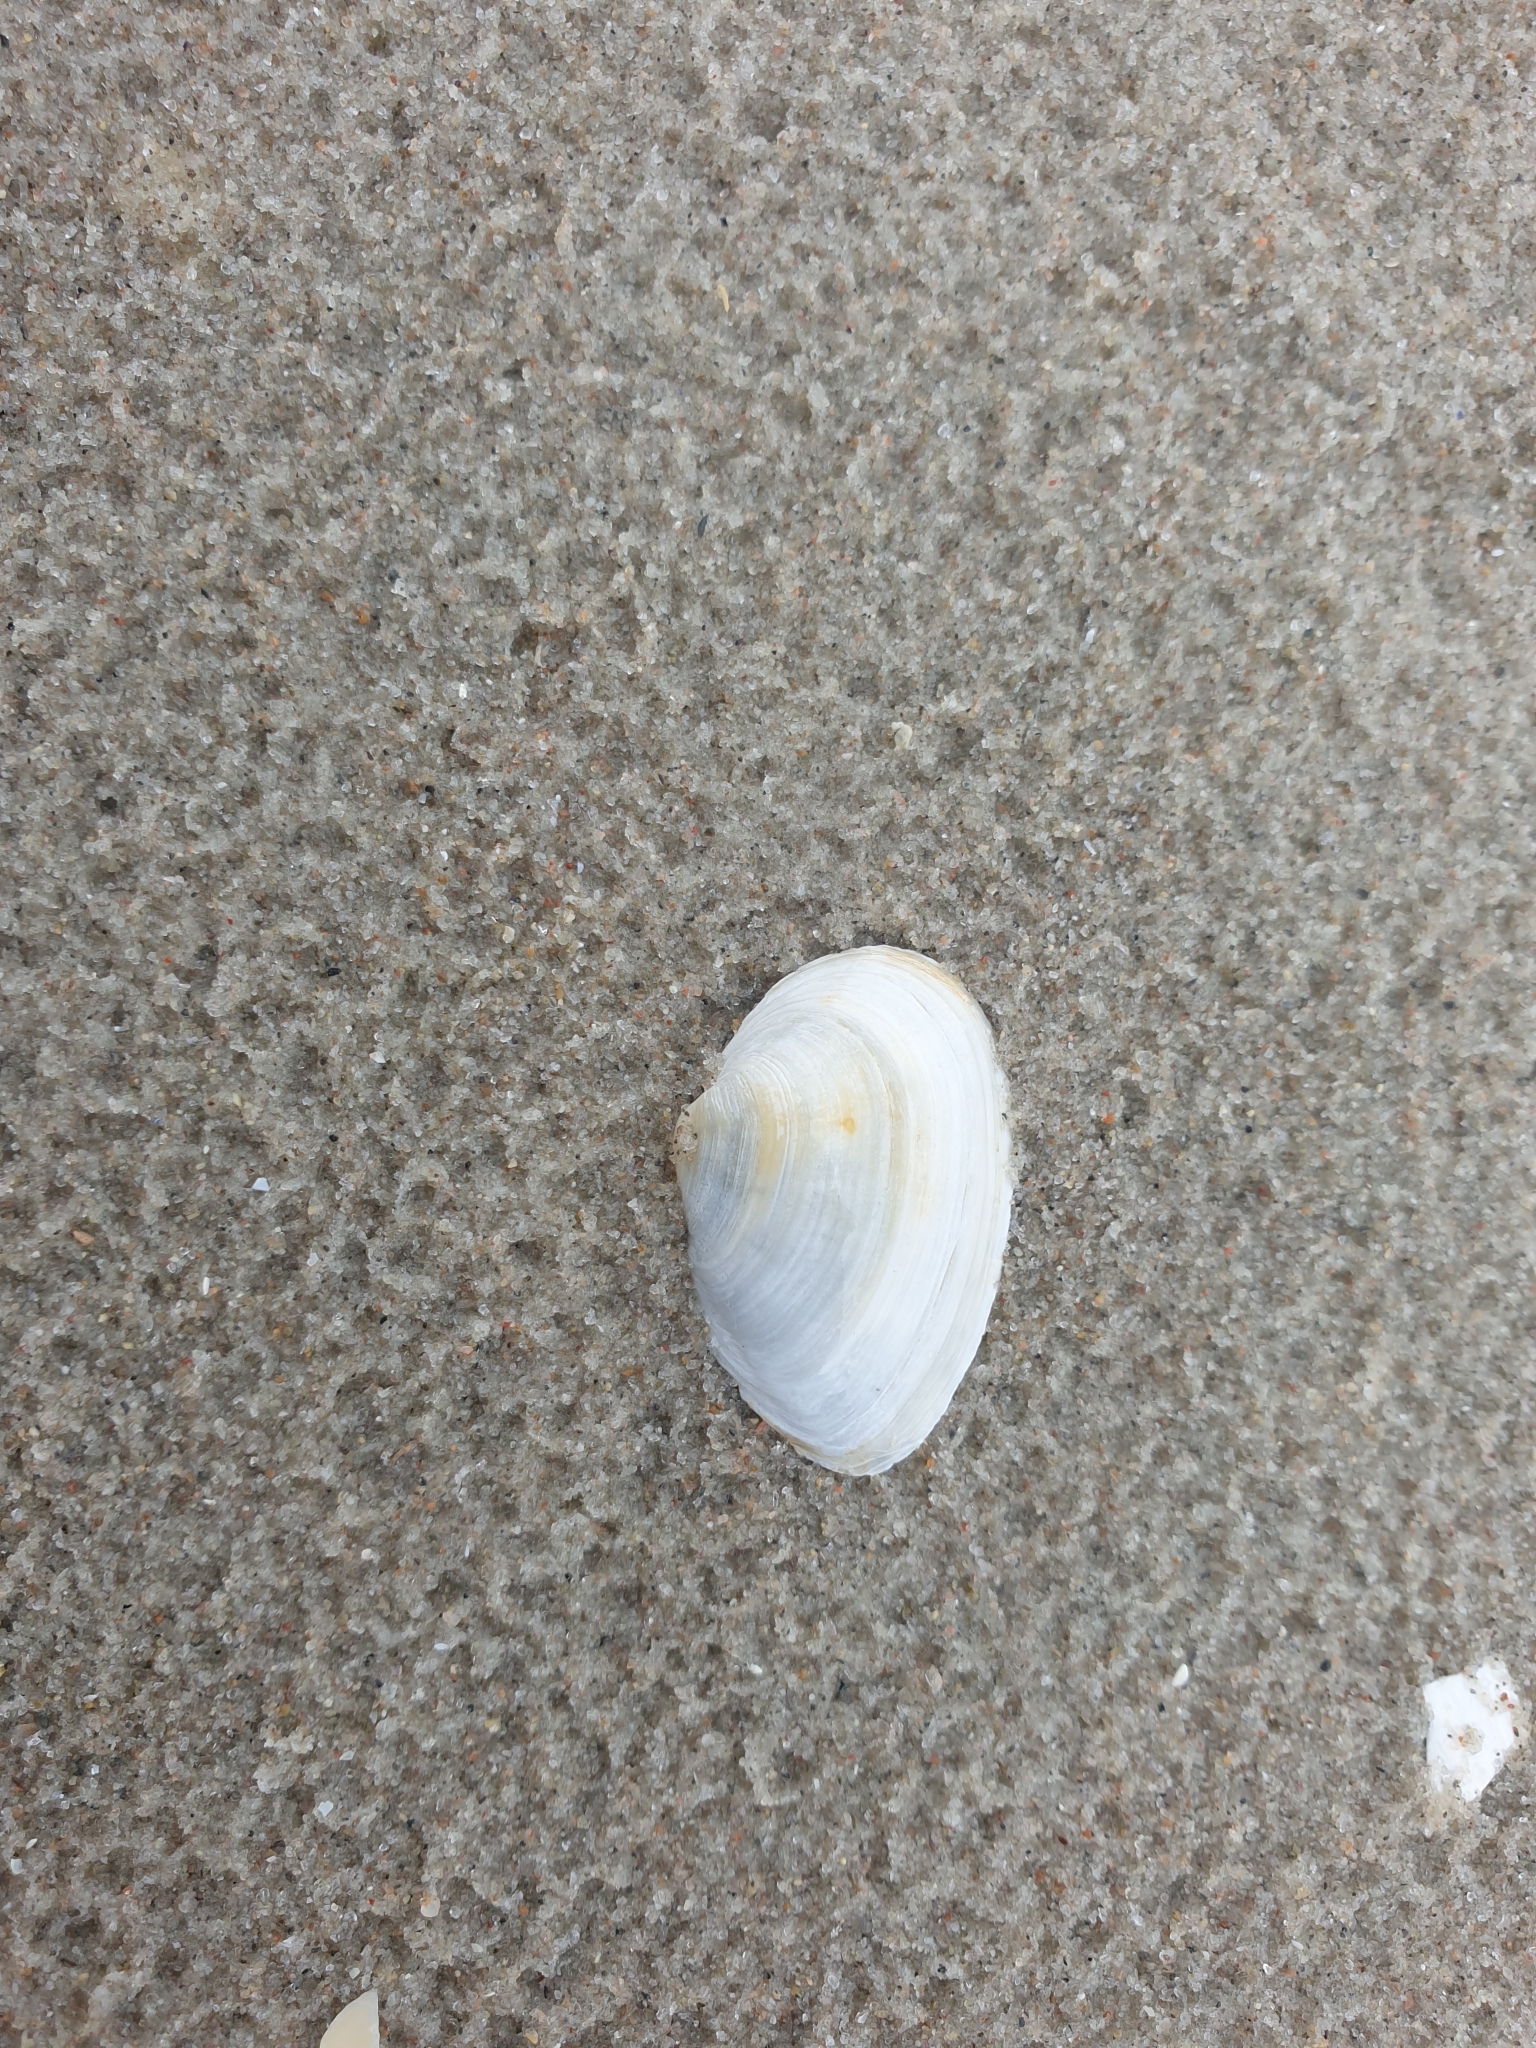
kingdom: Animalia
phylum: Mollusca
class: Bivalvia
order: Myida
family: Myidae
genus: Mya
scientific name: Mya arenaria
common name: Soft-shelled clam
